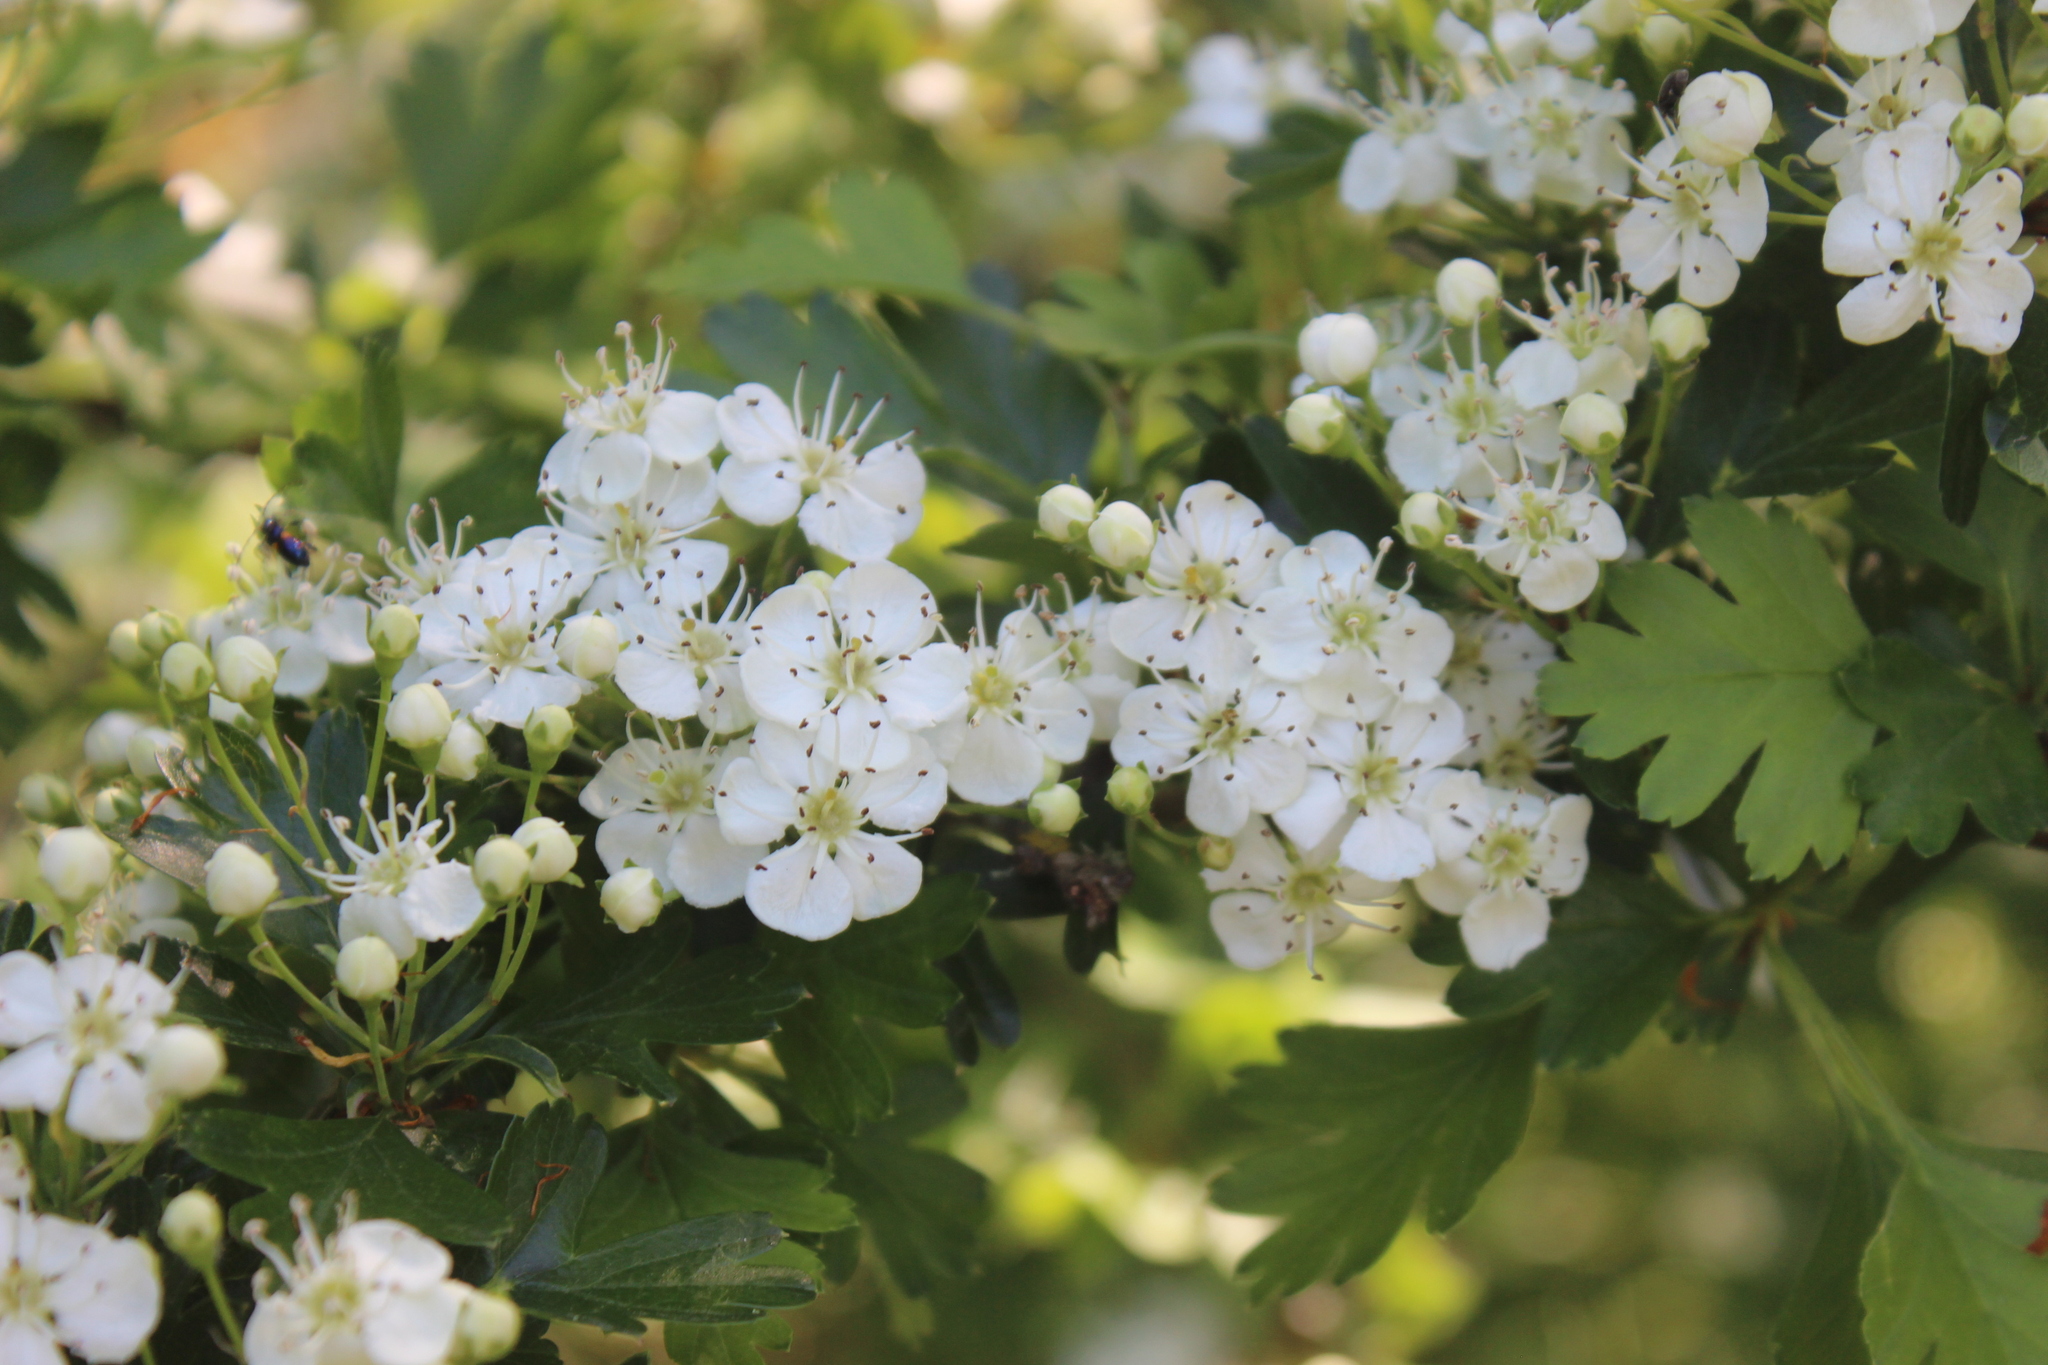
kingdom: Plantae
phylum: Tracheophyta
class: Magnoliopsida
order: Rosales
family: Rosaceae
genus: Crataegus
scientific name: Crataegus monogyna
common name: Hawthorn
